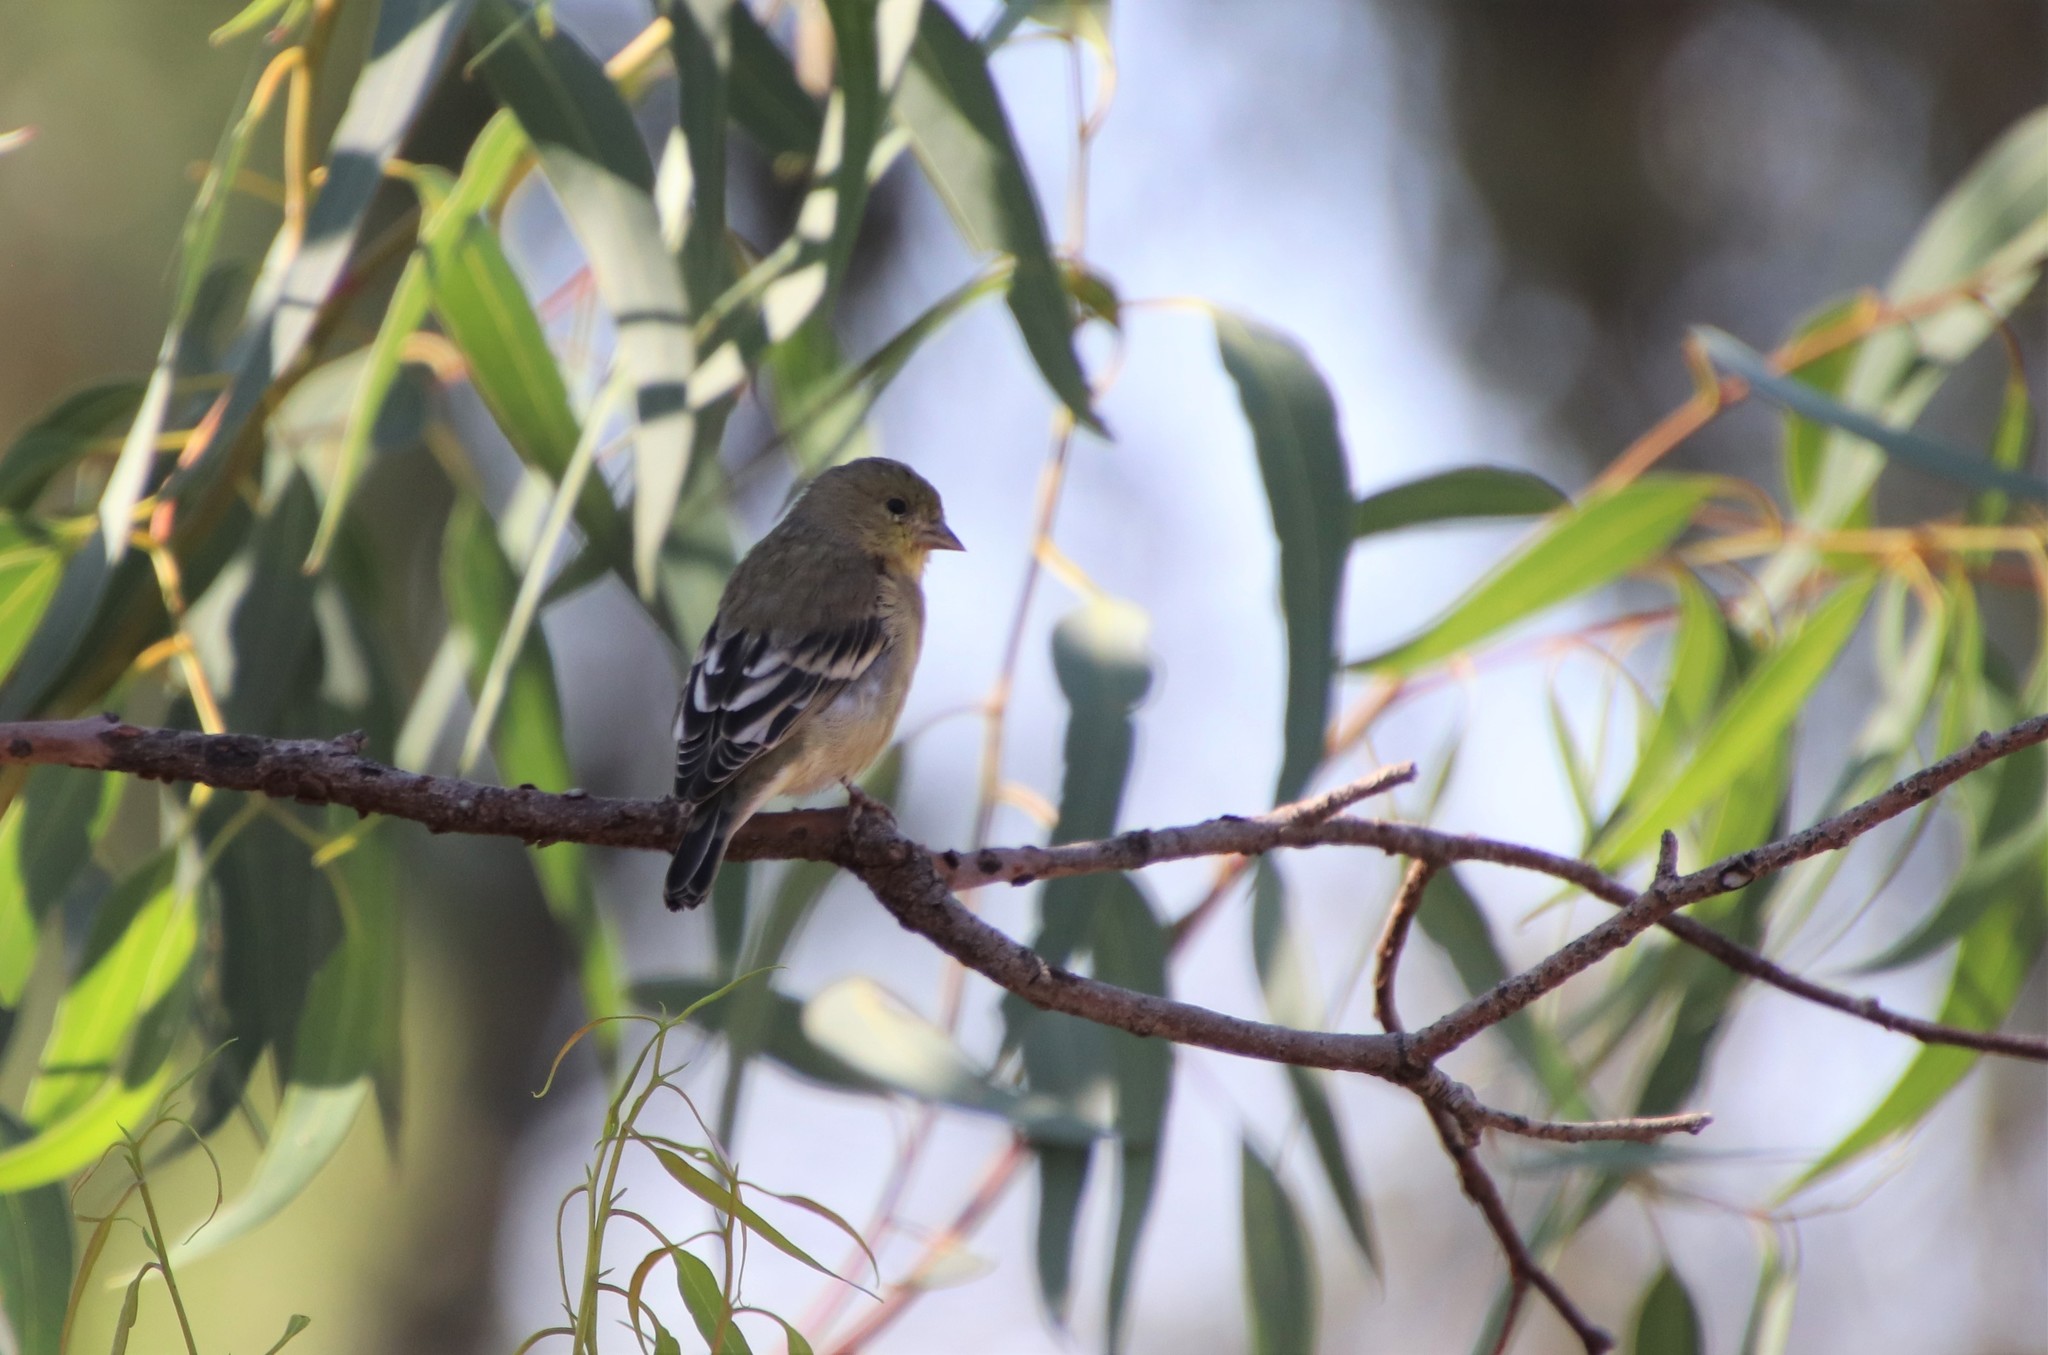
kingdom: Animalia
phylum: Chordata
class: Aves
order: Passeriformes
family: Fringillidae
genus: Spinus
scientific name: Spinus psaltria
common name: Lesser goldfinch
